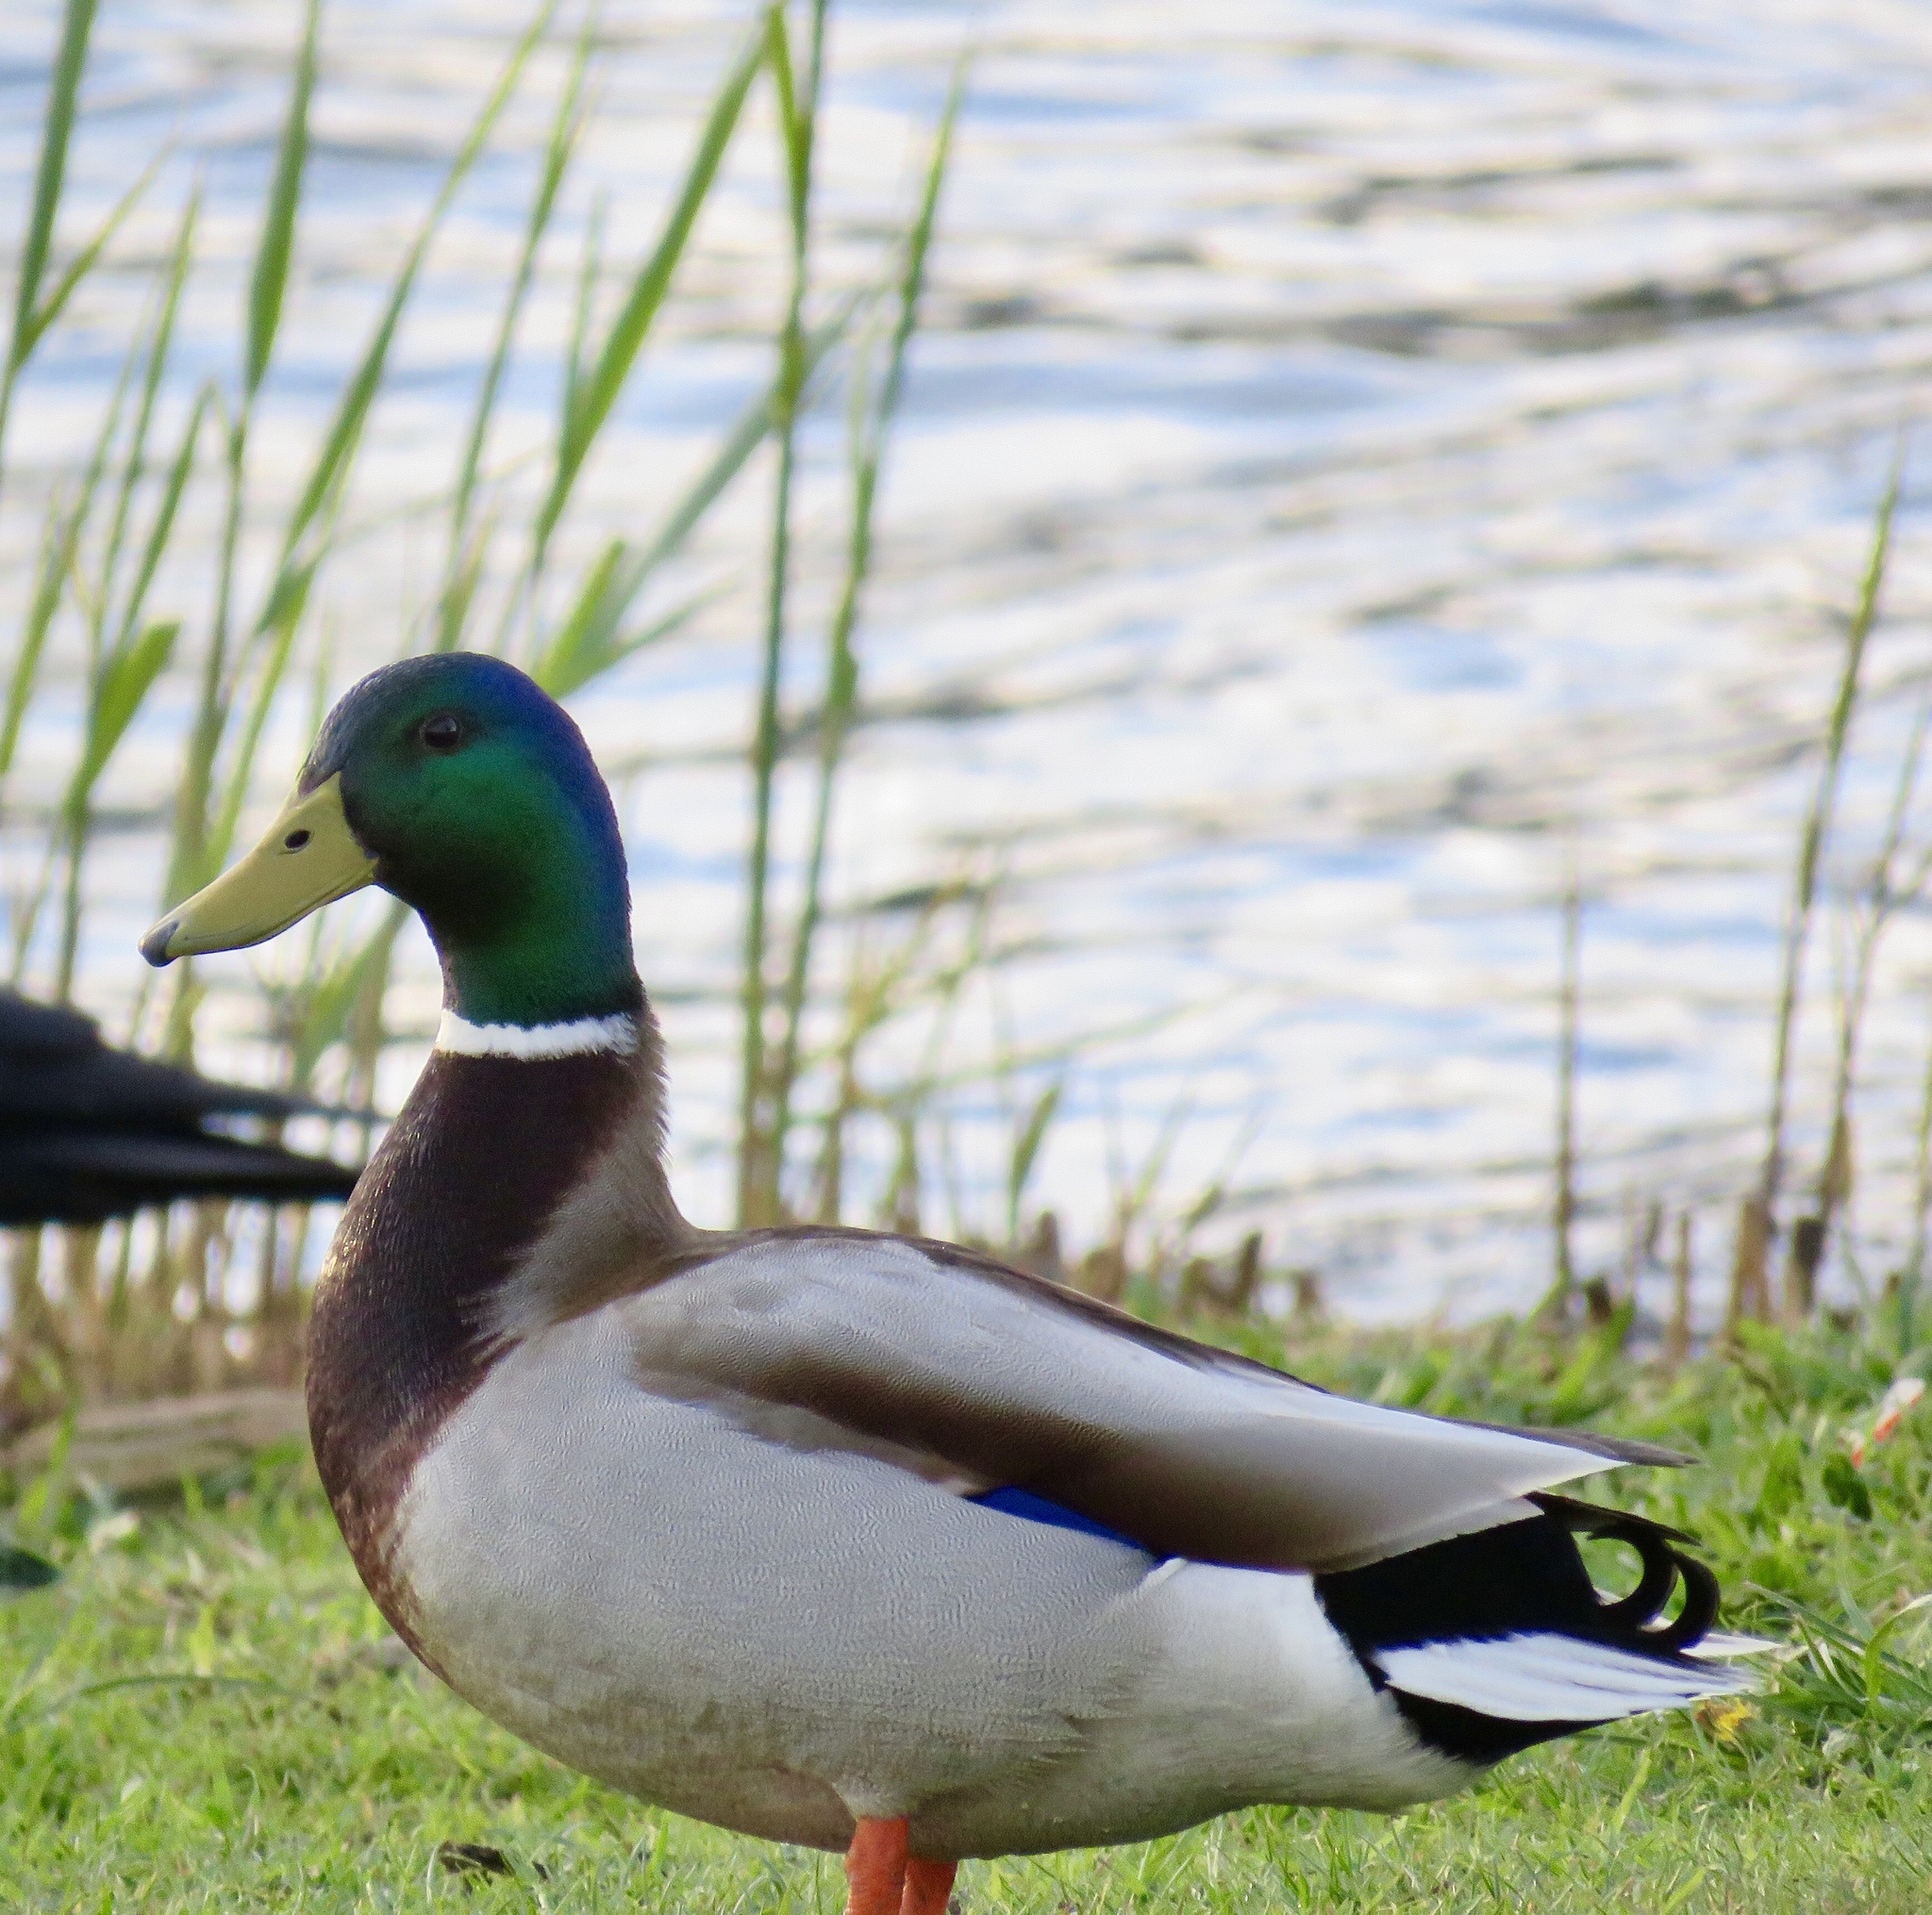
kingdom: Animalia
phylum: Chordata
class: Aves
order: Anseriformes
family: Anatidae
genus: Anas
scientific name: Anas platyrhynchos
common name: Mallard
